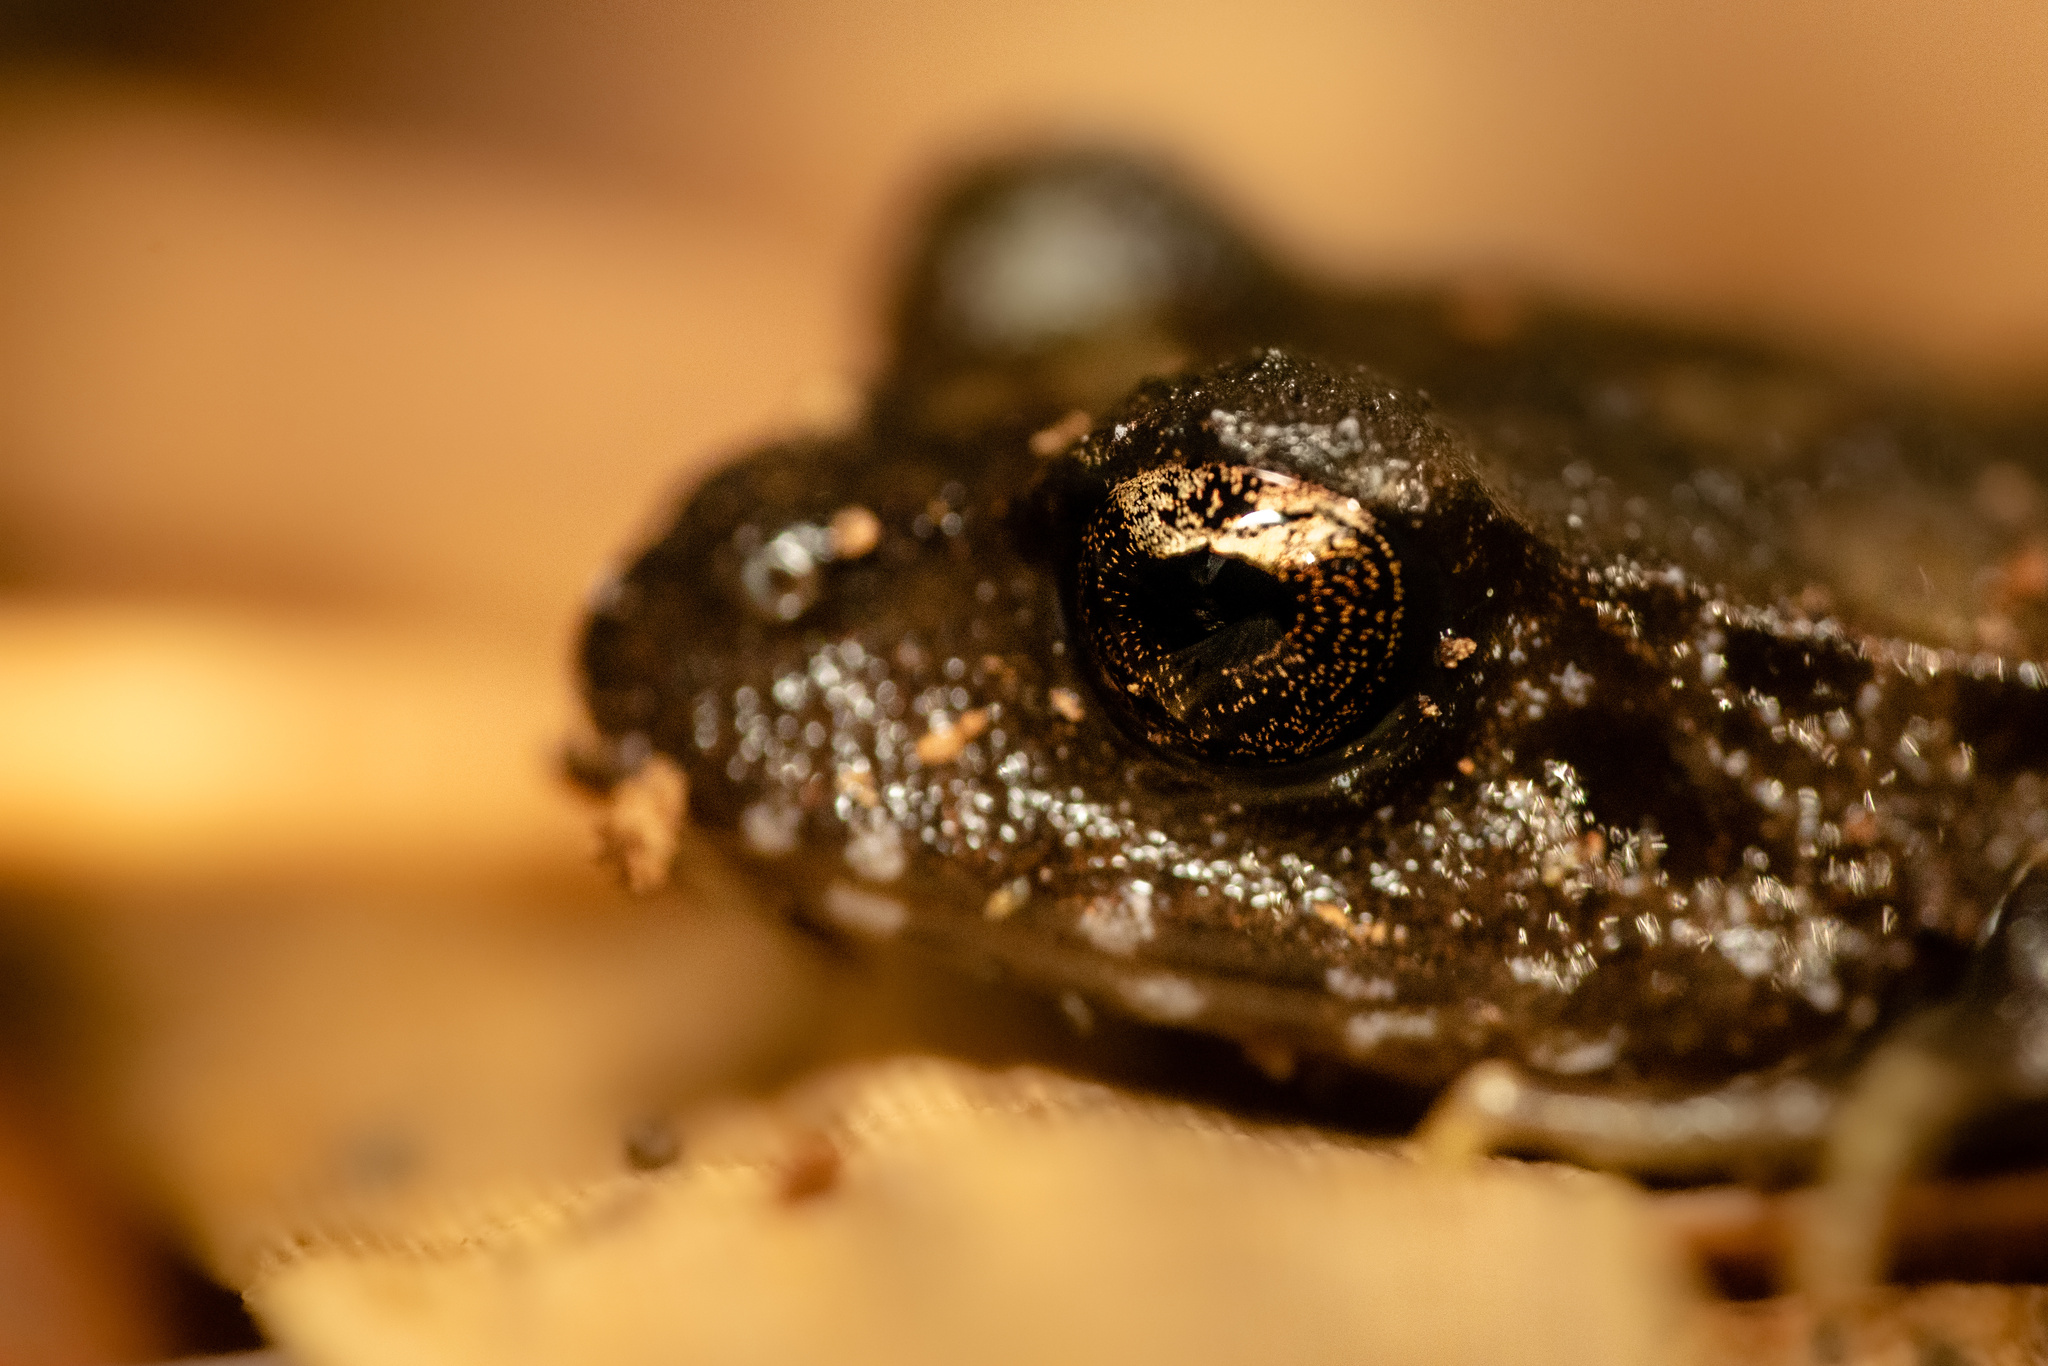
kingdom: Animalia
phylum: Chordata
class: Amphibia
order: Anura
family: Alsodidae
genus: Eupsophus
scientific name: Eupsophus roseus
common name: Rosy ground frog
